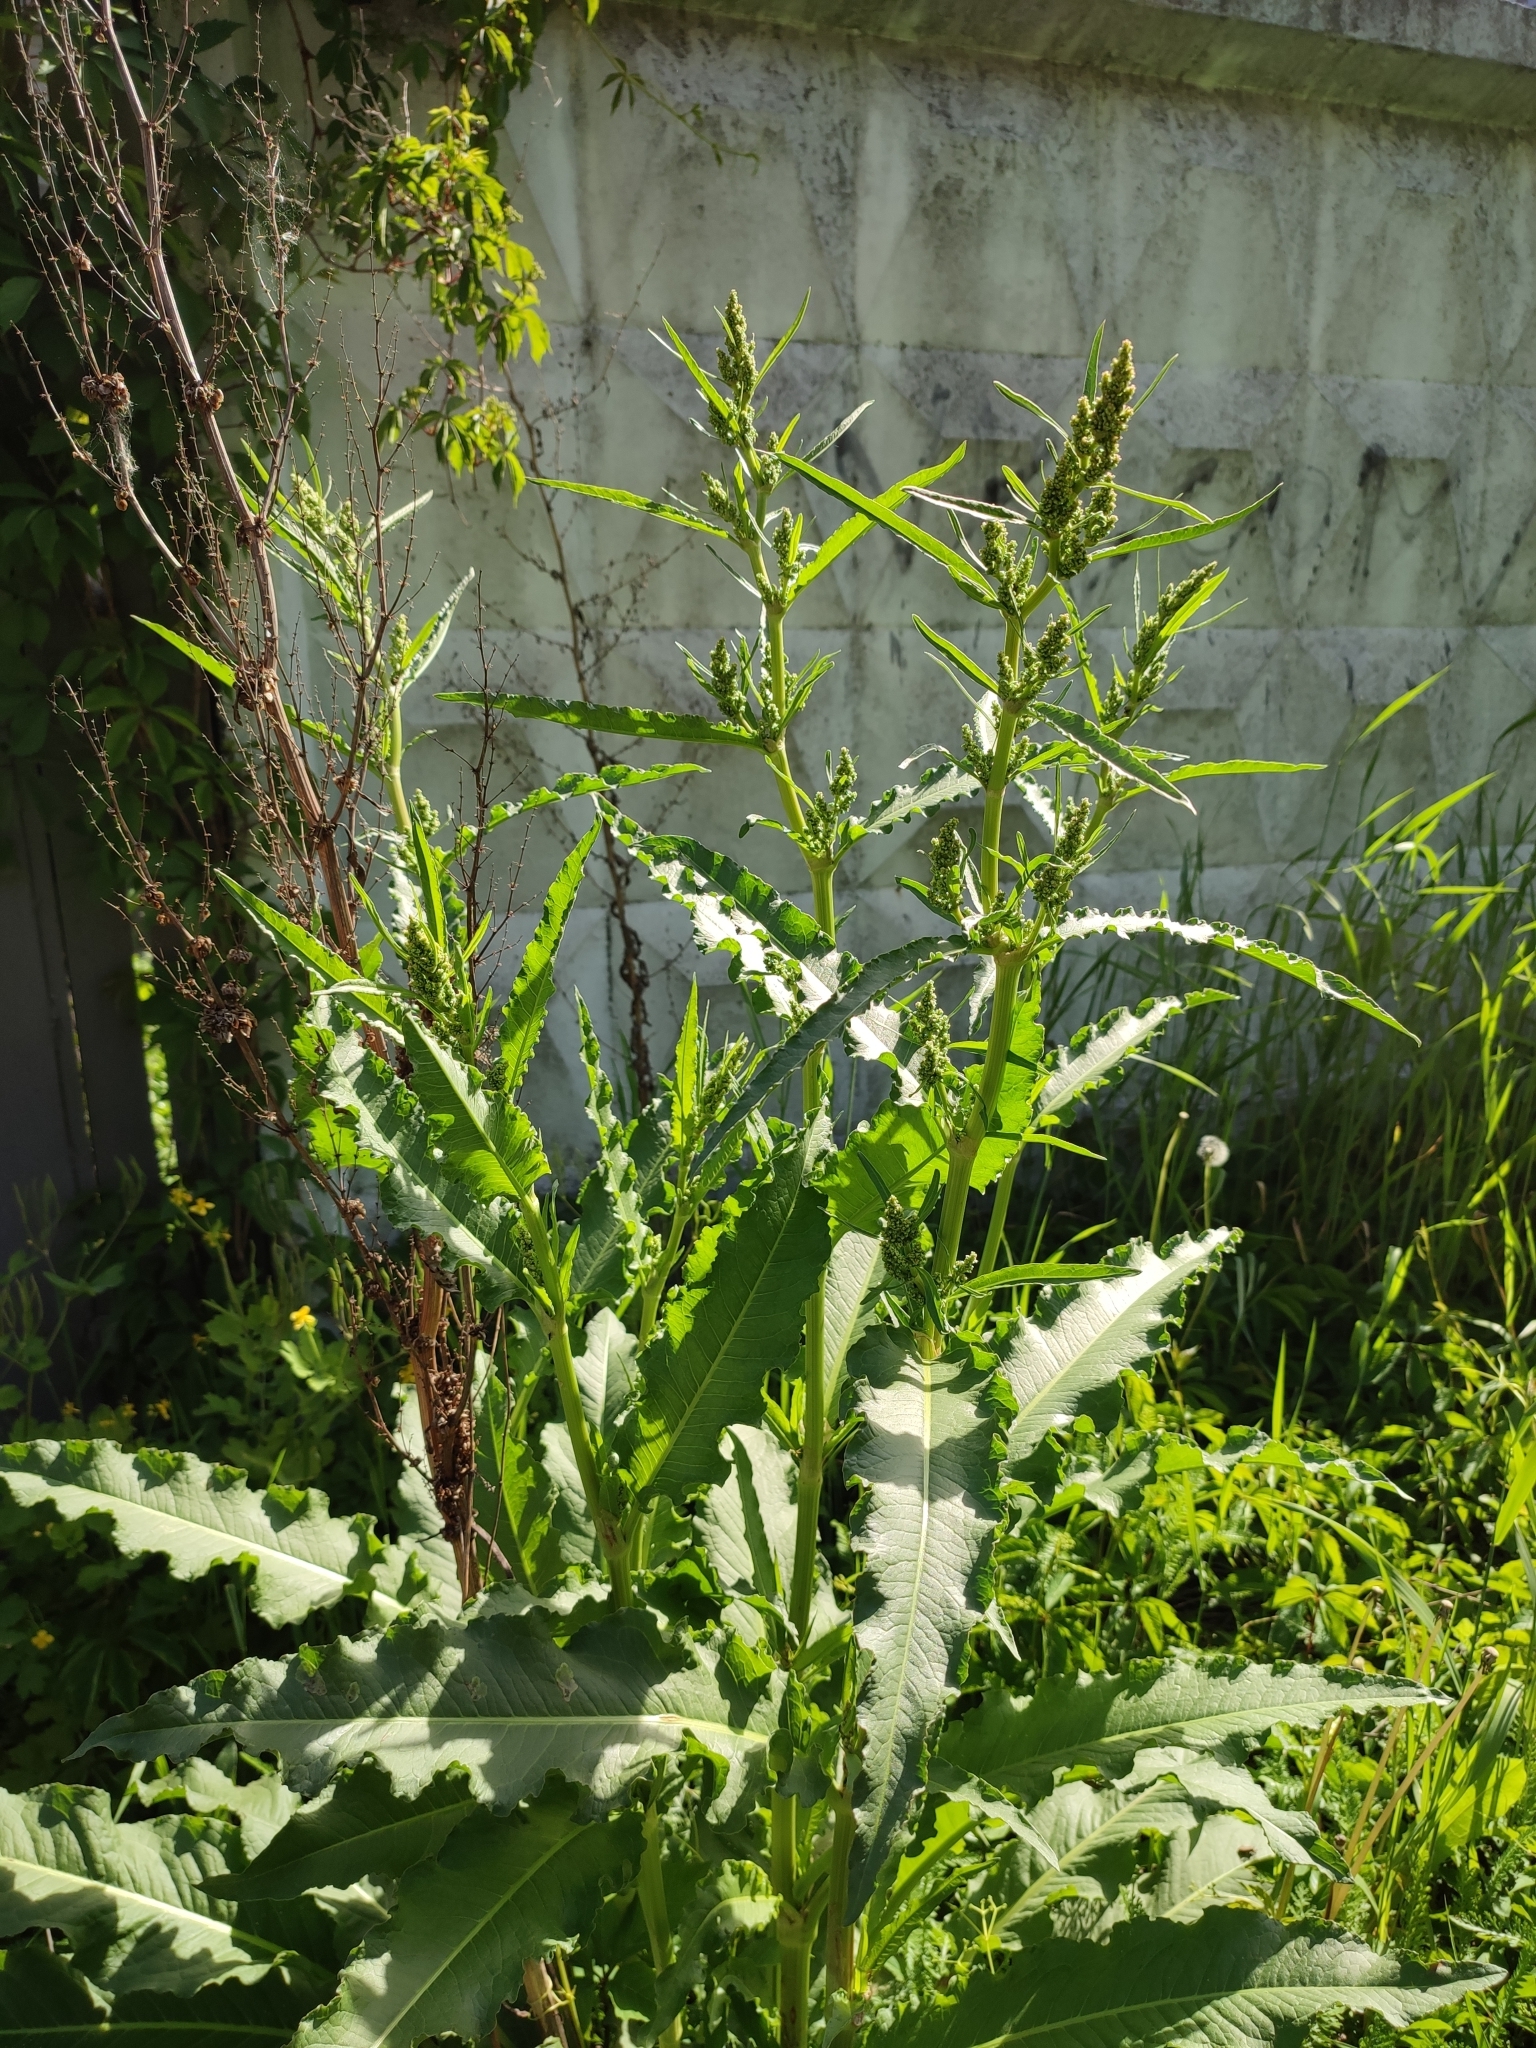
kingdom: Plantae
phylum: Tracheophyta
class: Magnoliopsida
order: Caryophyllales
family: Polygonaceae
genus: Rumex
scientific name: Rumex crispus
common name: Curled dock
